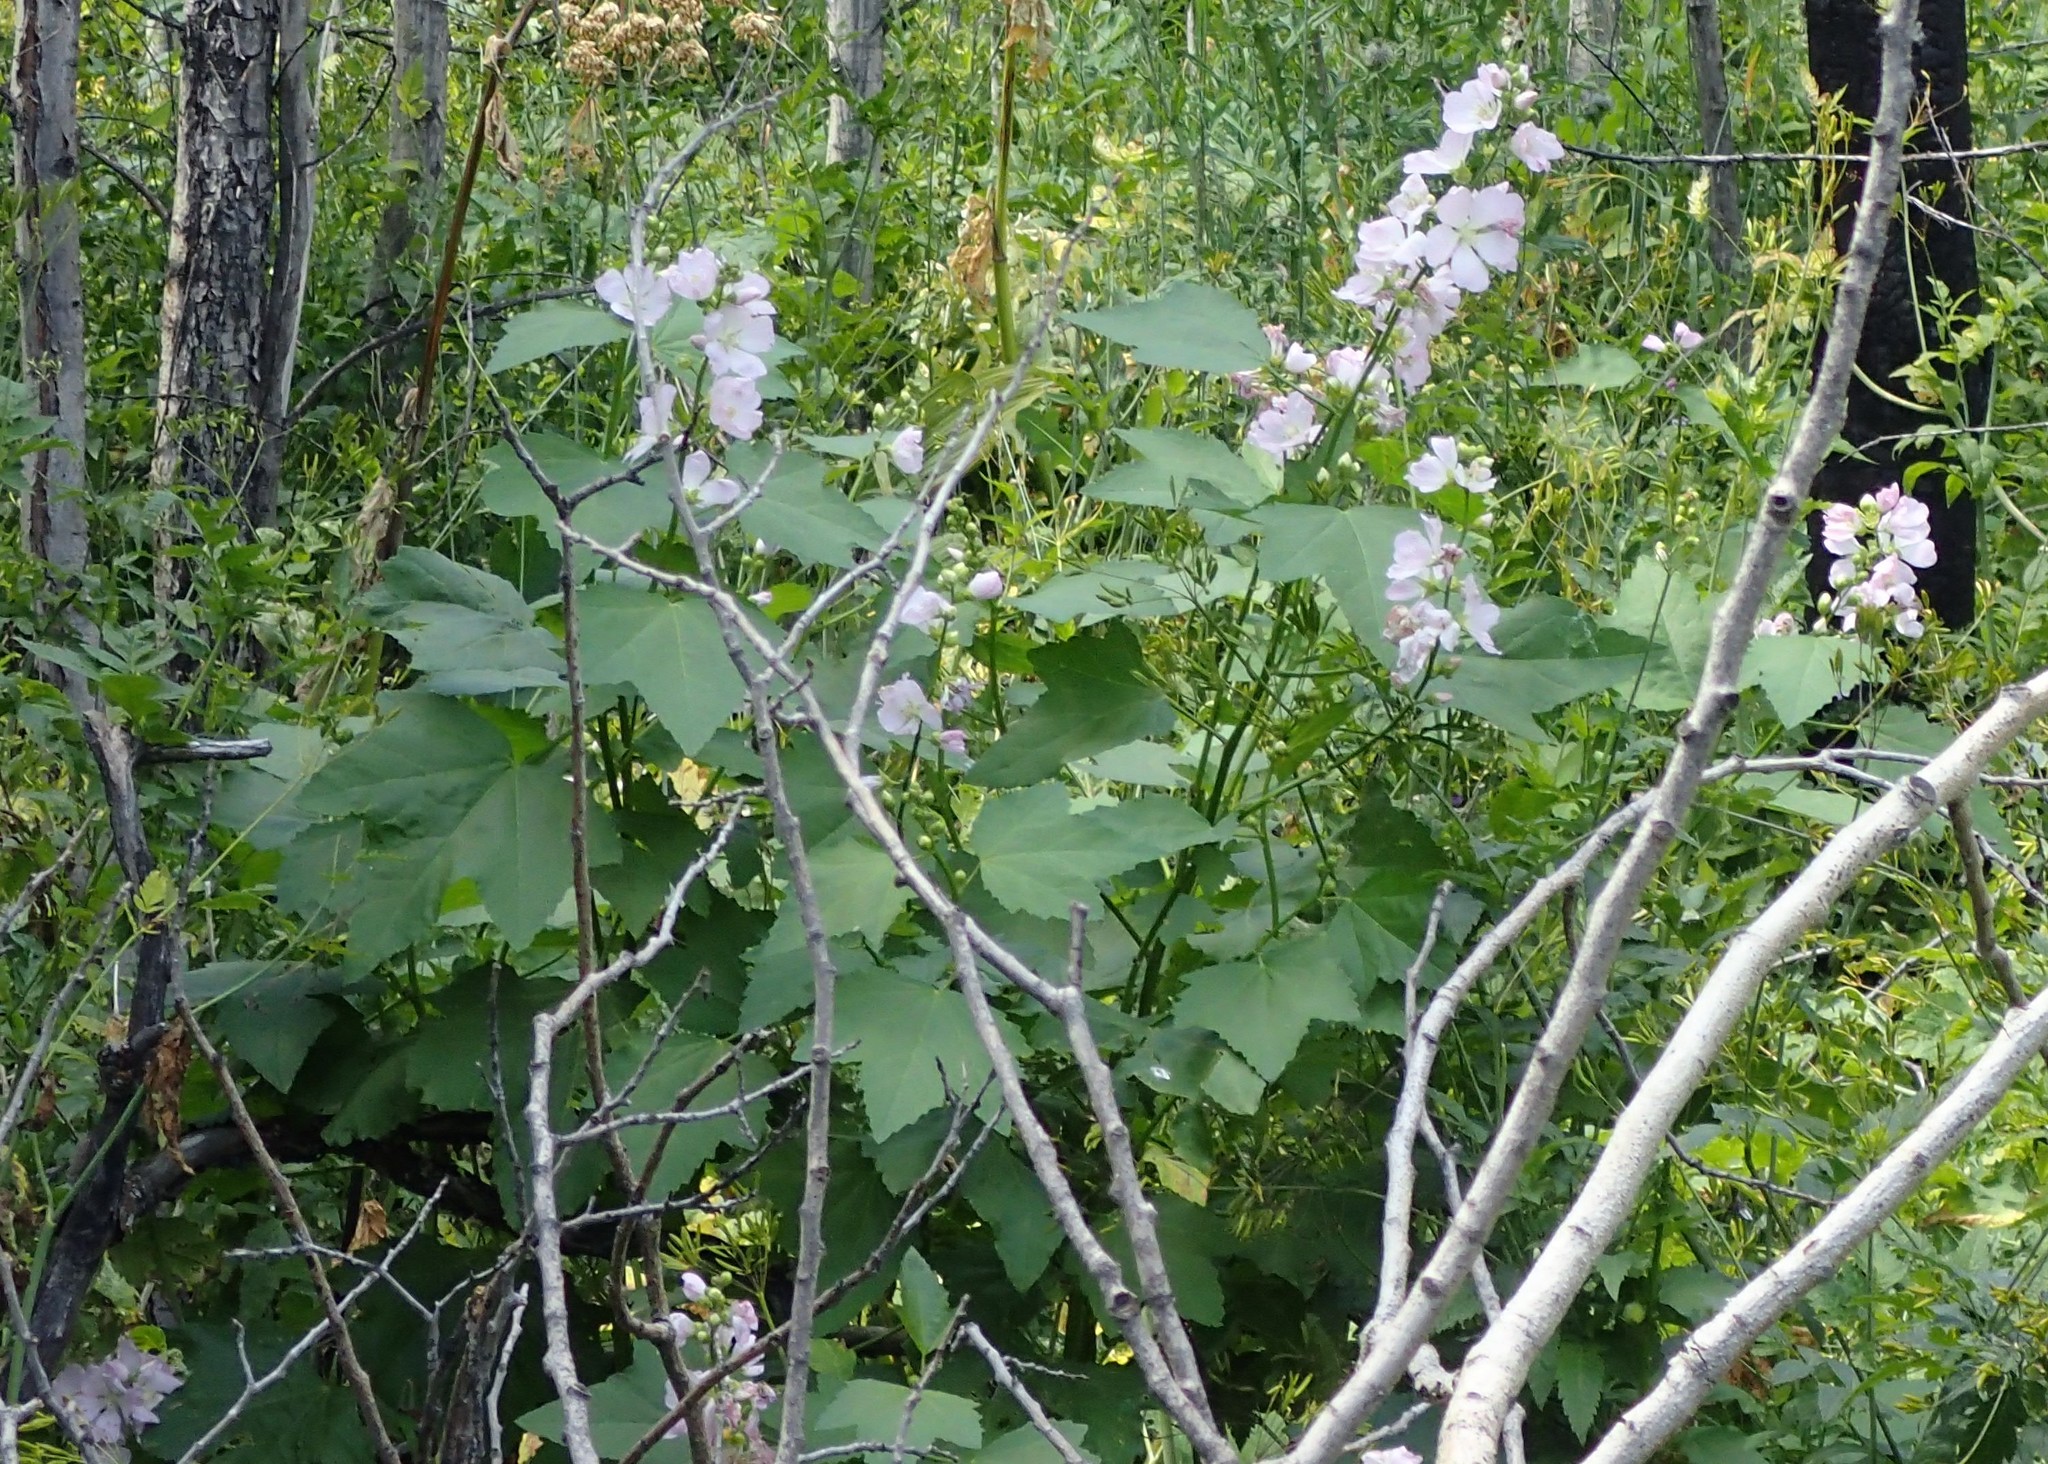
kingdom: Plantae
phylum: Tracheophyta
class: Magnoliopsida
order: Malvales
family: Malvaceae
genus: Iliamna
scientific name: Iliamna rivularis
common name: Wild hollyhock
